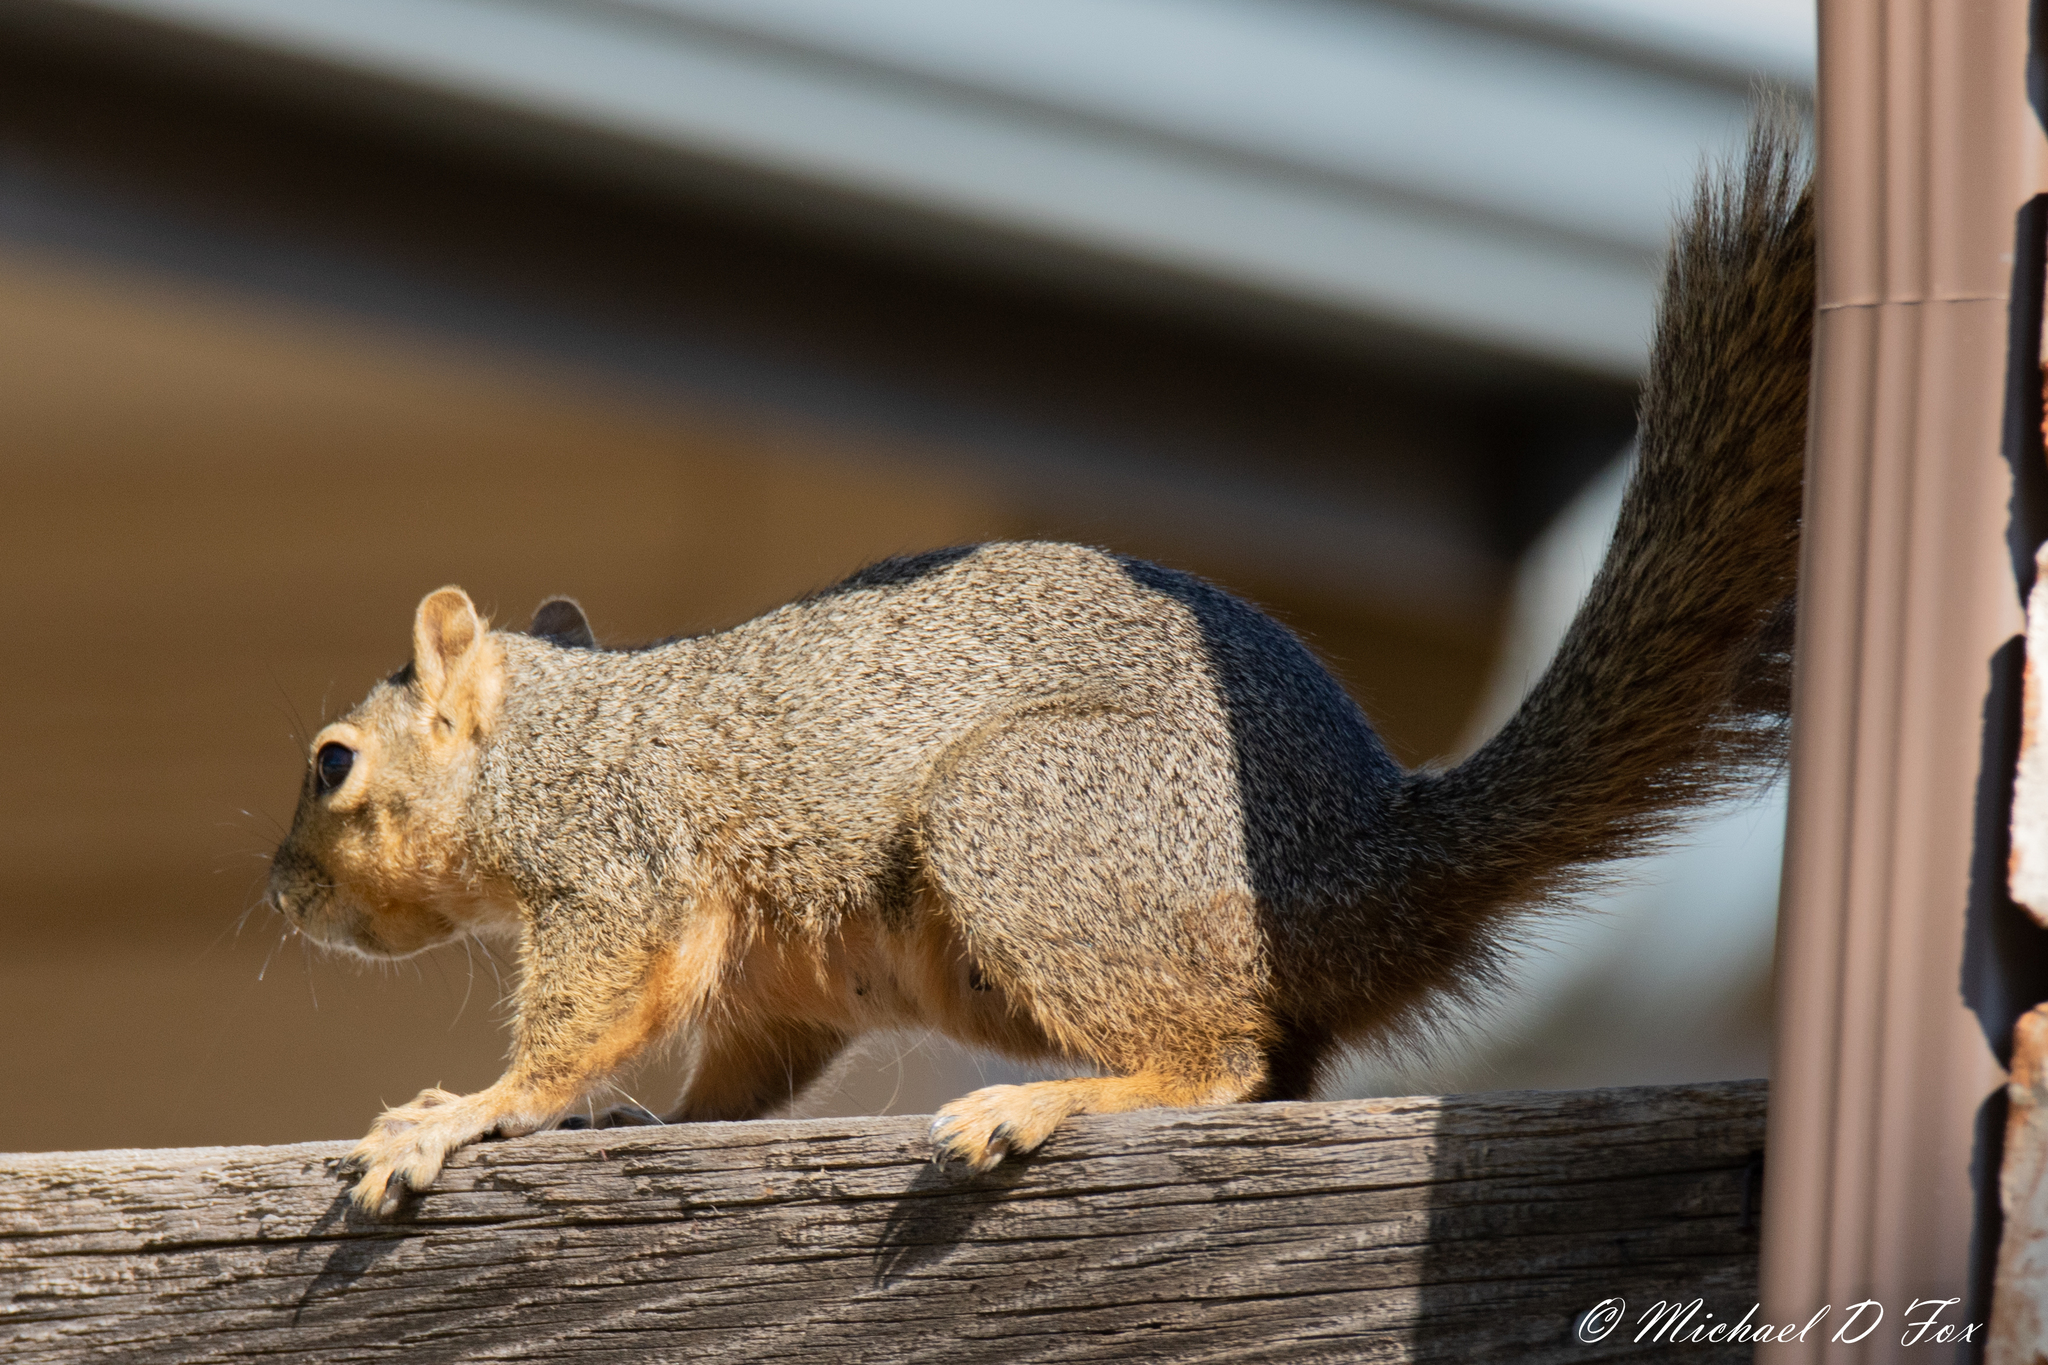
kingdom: Animalia
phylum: Chordata
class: Mammalia
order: Rodentia
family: Sciuridae
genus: Sciurus
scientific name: Sciurus niger
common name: Fox squirrel
